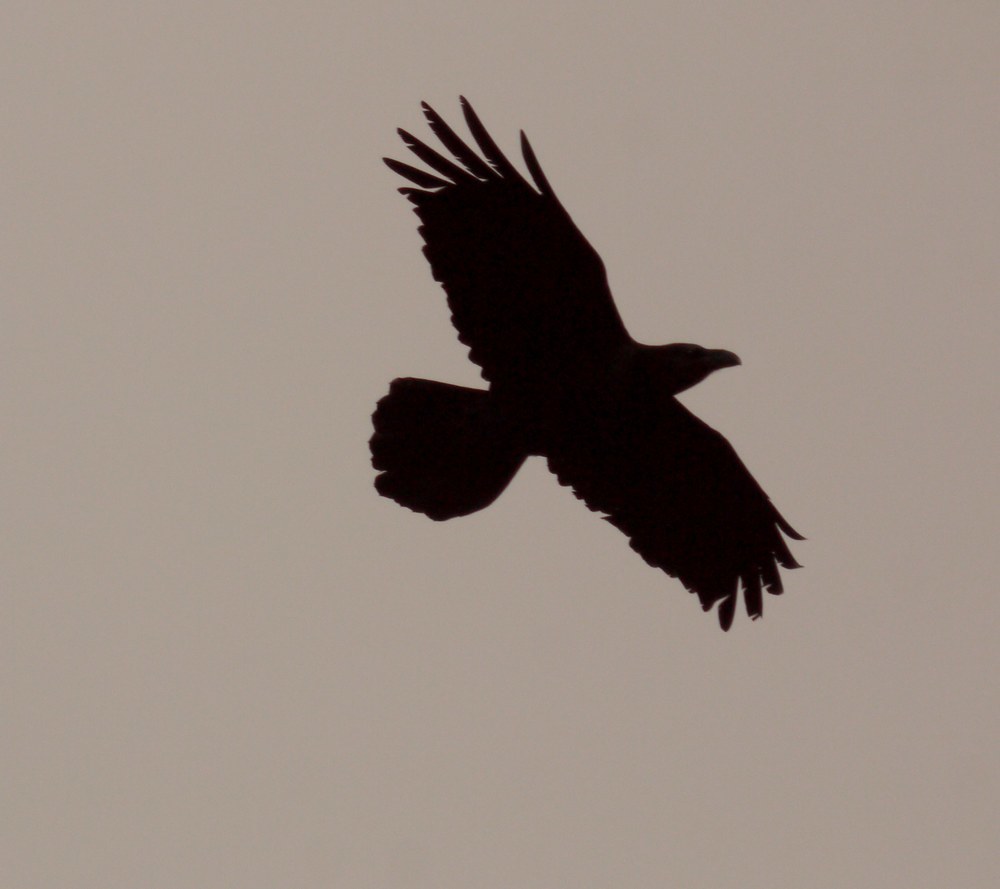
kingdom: Animalia
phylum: Chordata
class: Aves
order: Passeriformes
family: Corvidae
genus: Corvus
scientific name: Corvus corax
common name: Common raven
